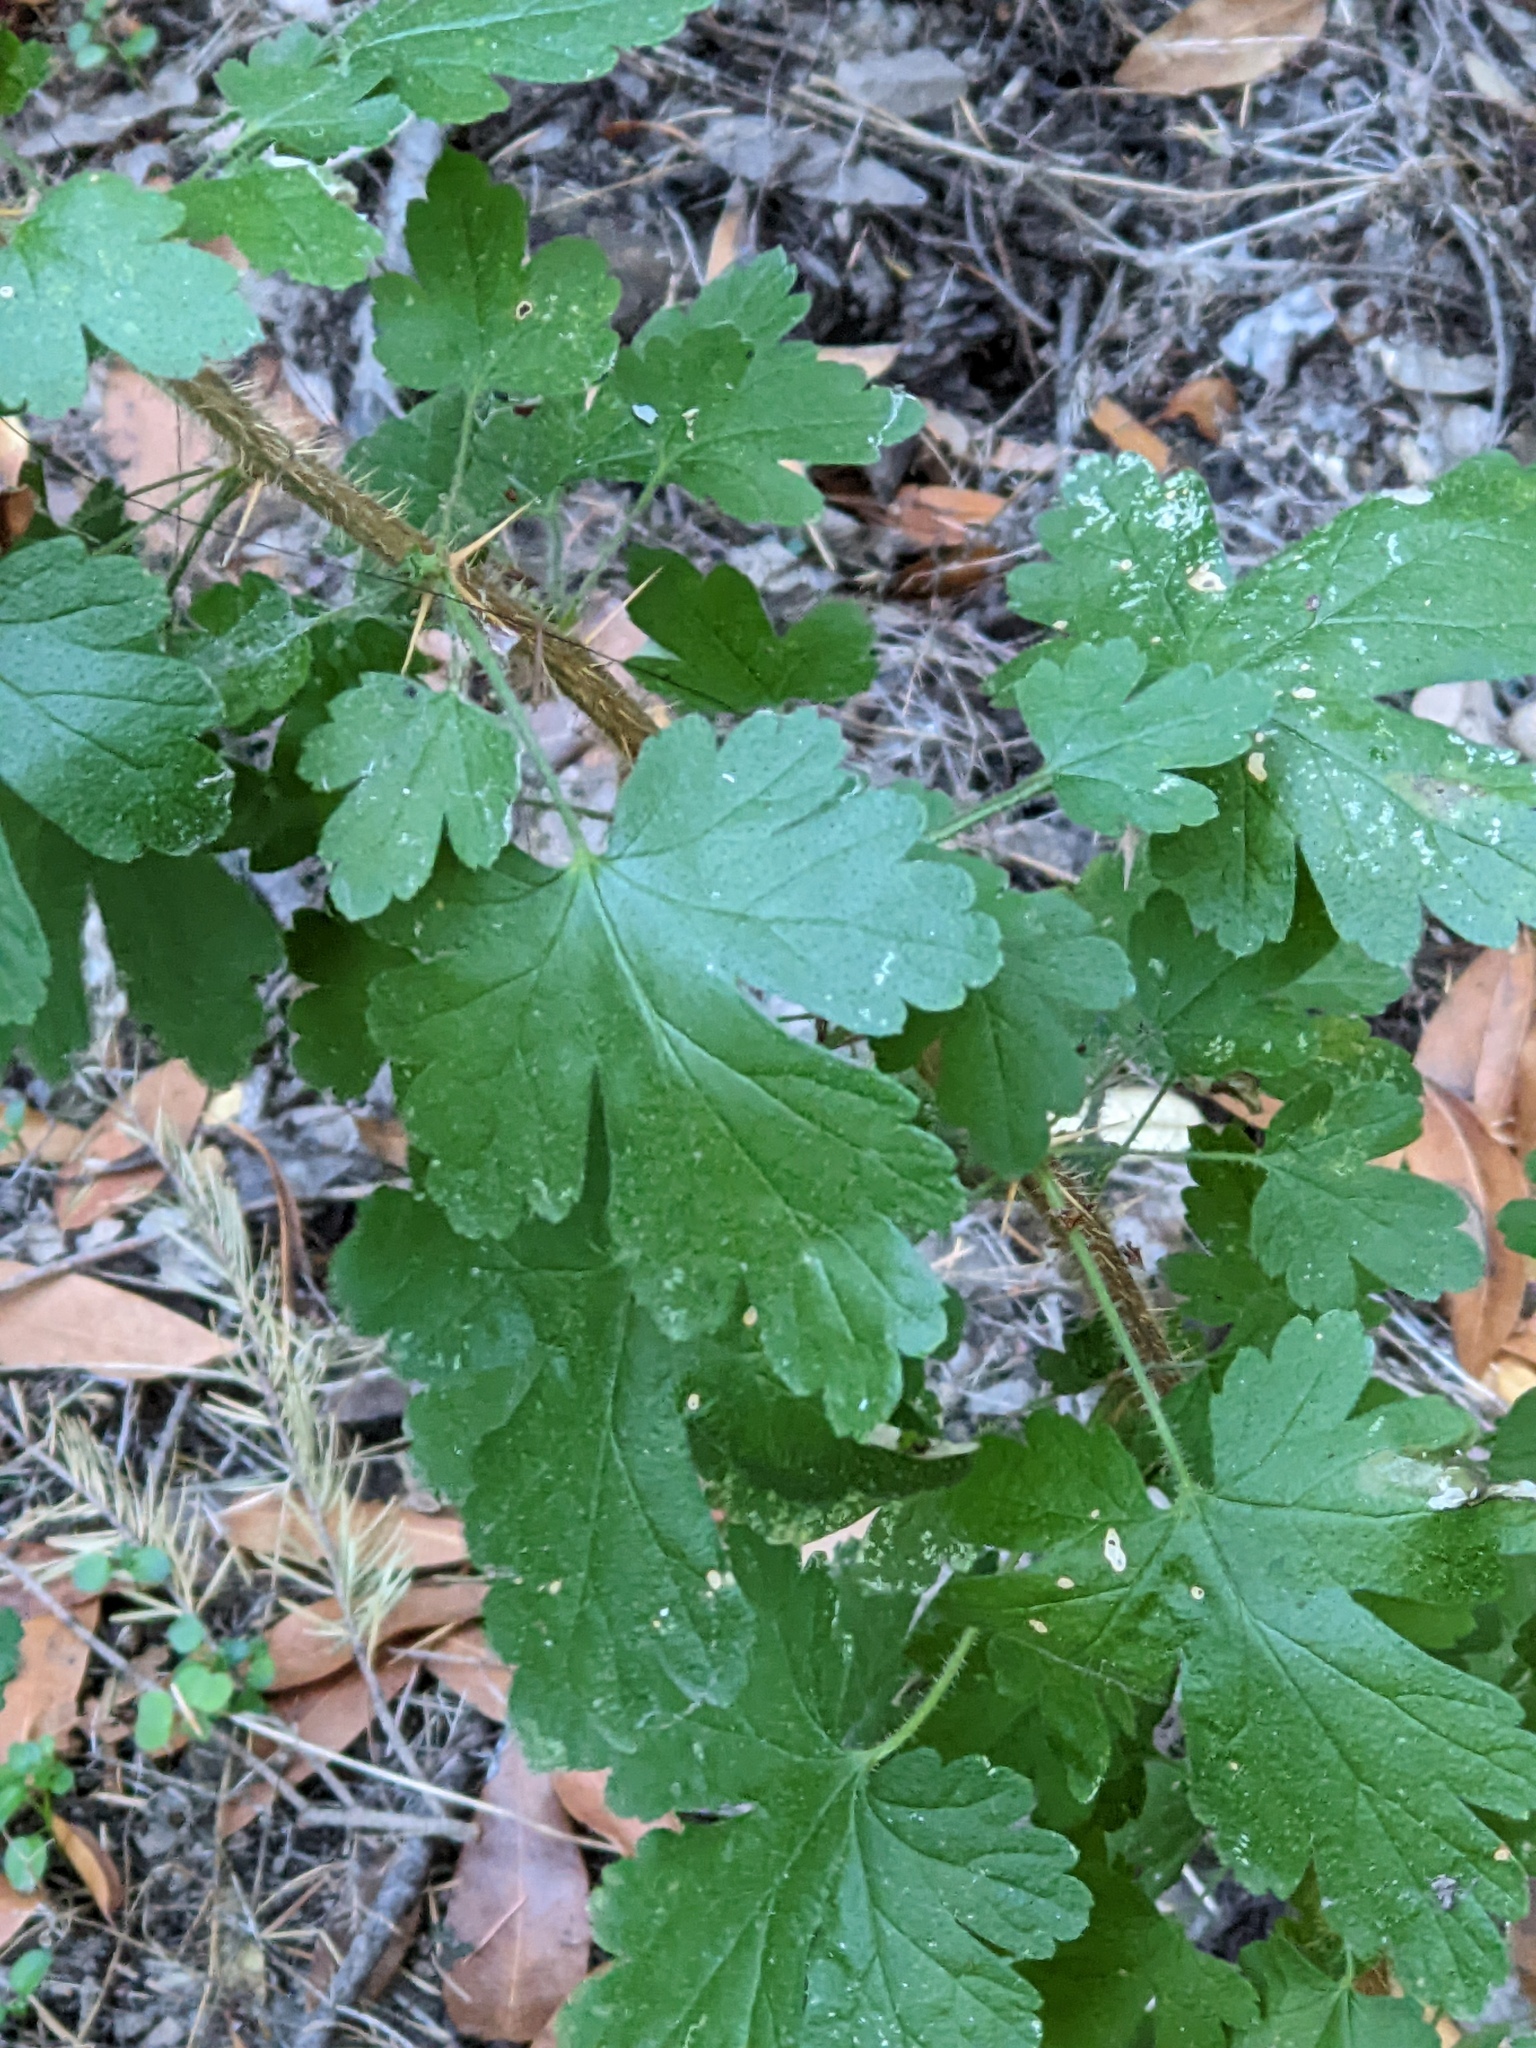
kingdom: Plantae
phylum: Tracheophyta
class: Magnoliopsida
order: Saxifragales
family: Grossulariaceae
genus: Ribes
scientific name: Ribes menziesii
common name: Canyon gooseberry
